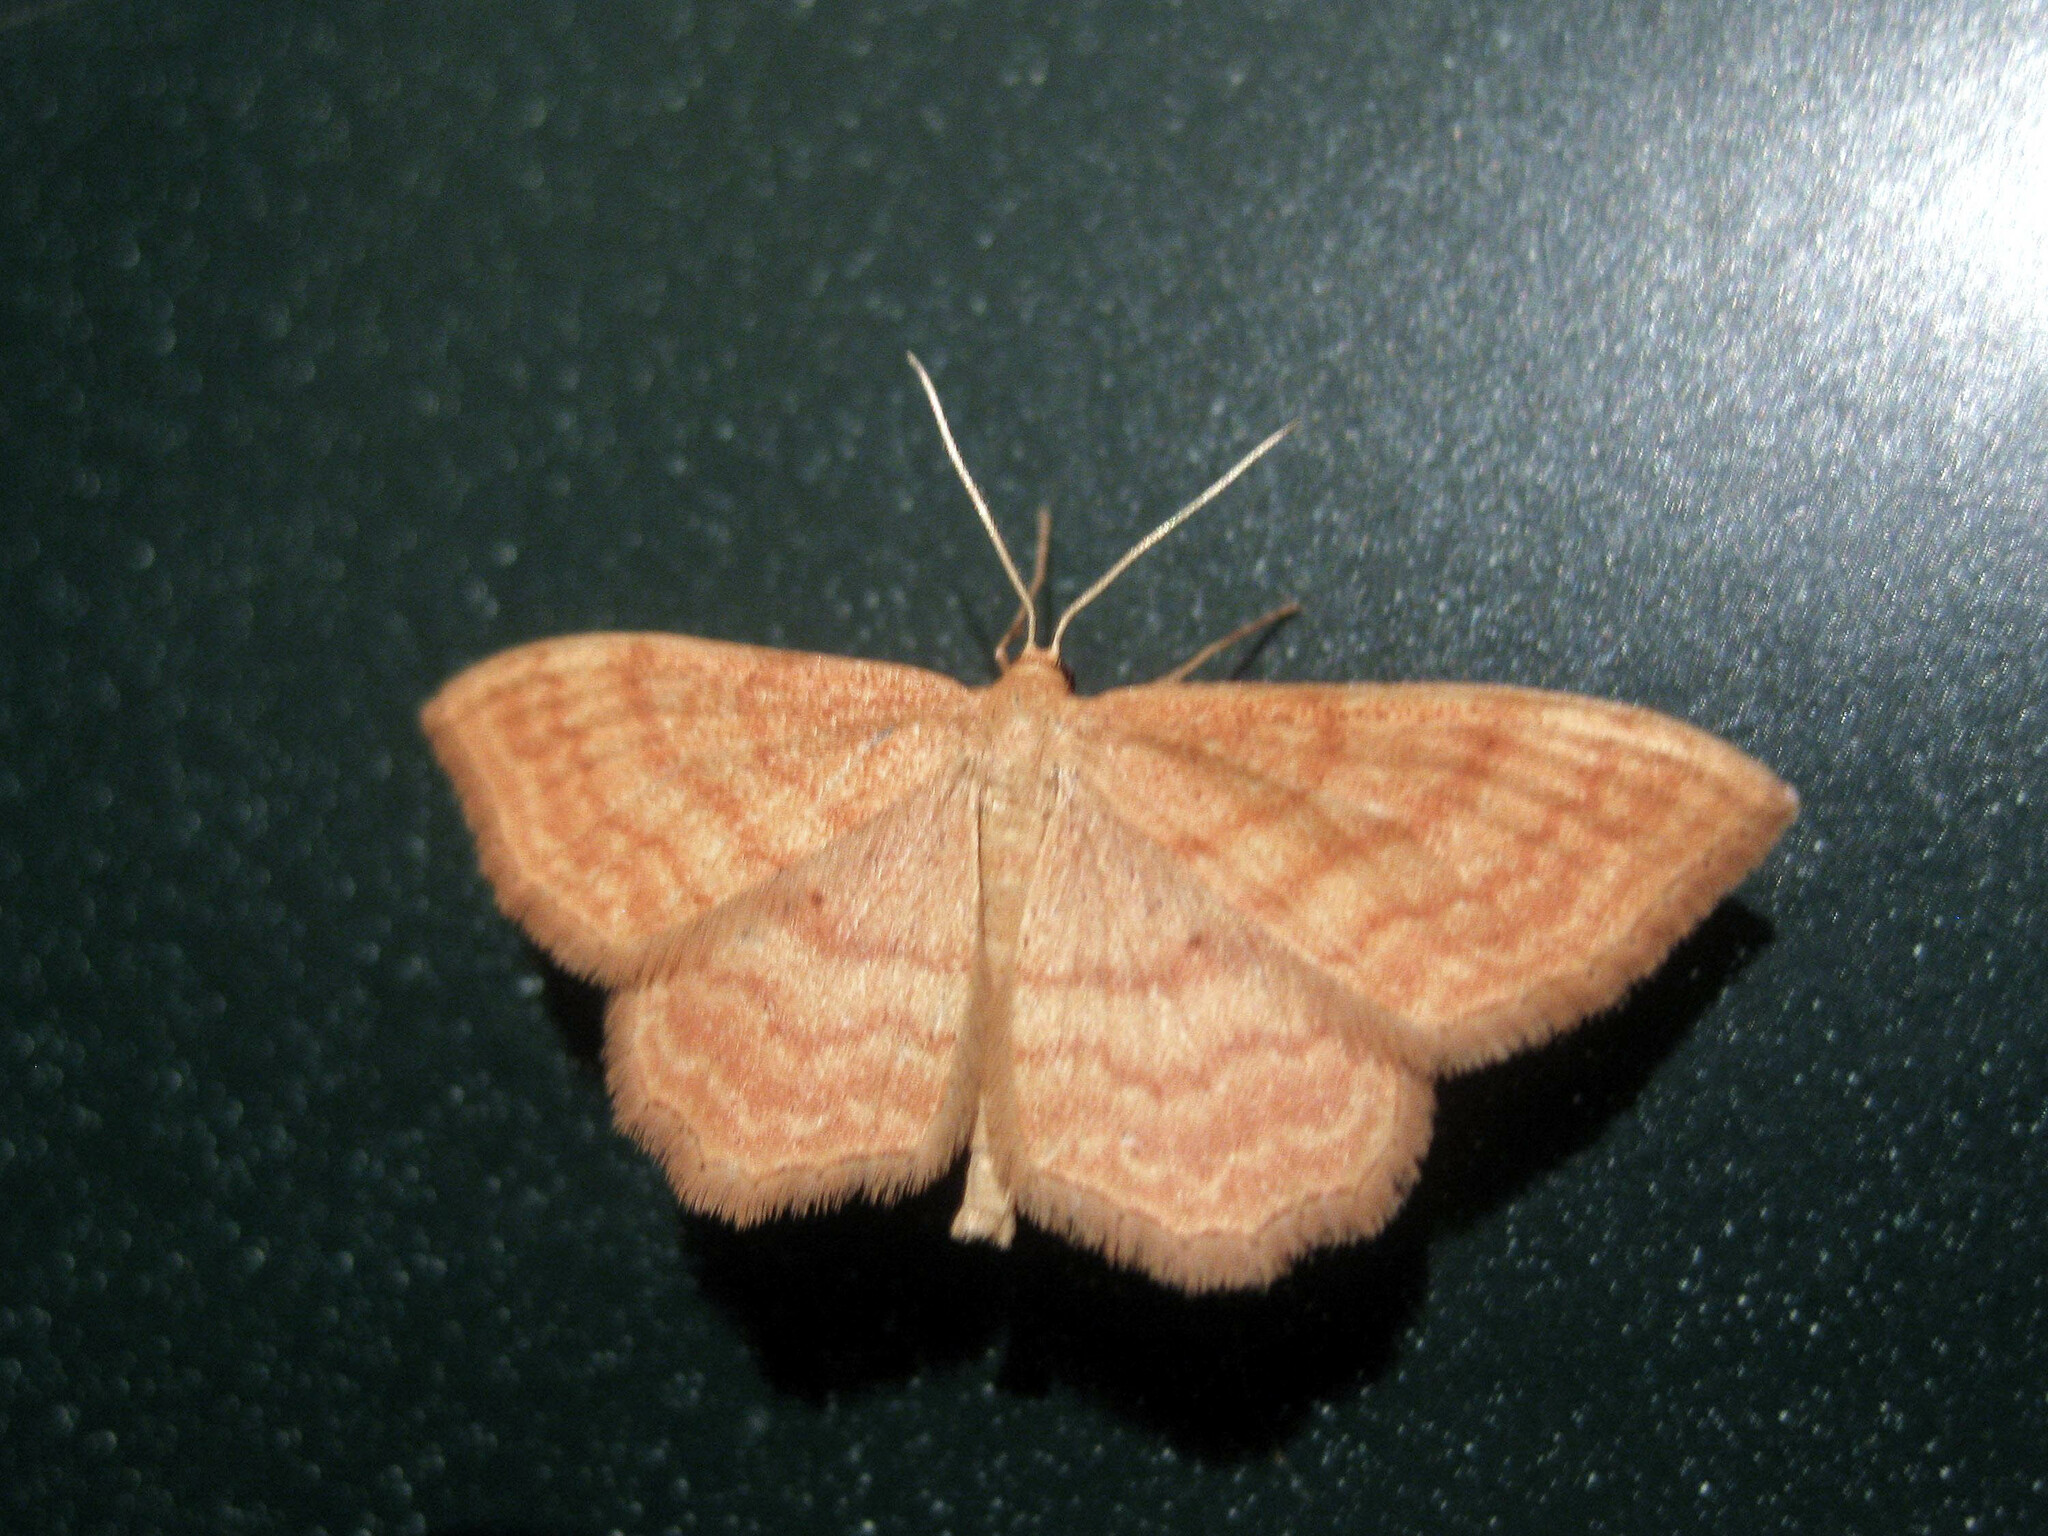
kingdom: Animalia
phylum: Arthropoda
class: Insecta
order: Lepidoptera
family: Geometridae
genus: Idaea
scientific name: Idaea ochrata
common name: Bright wave
